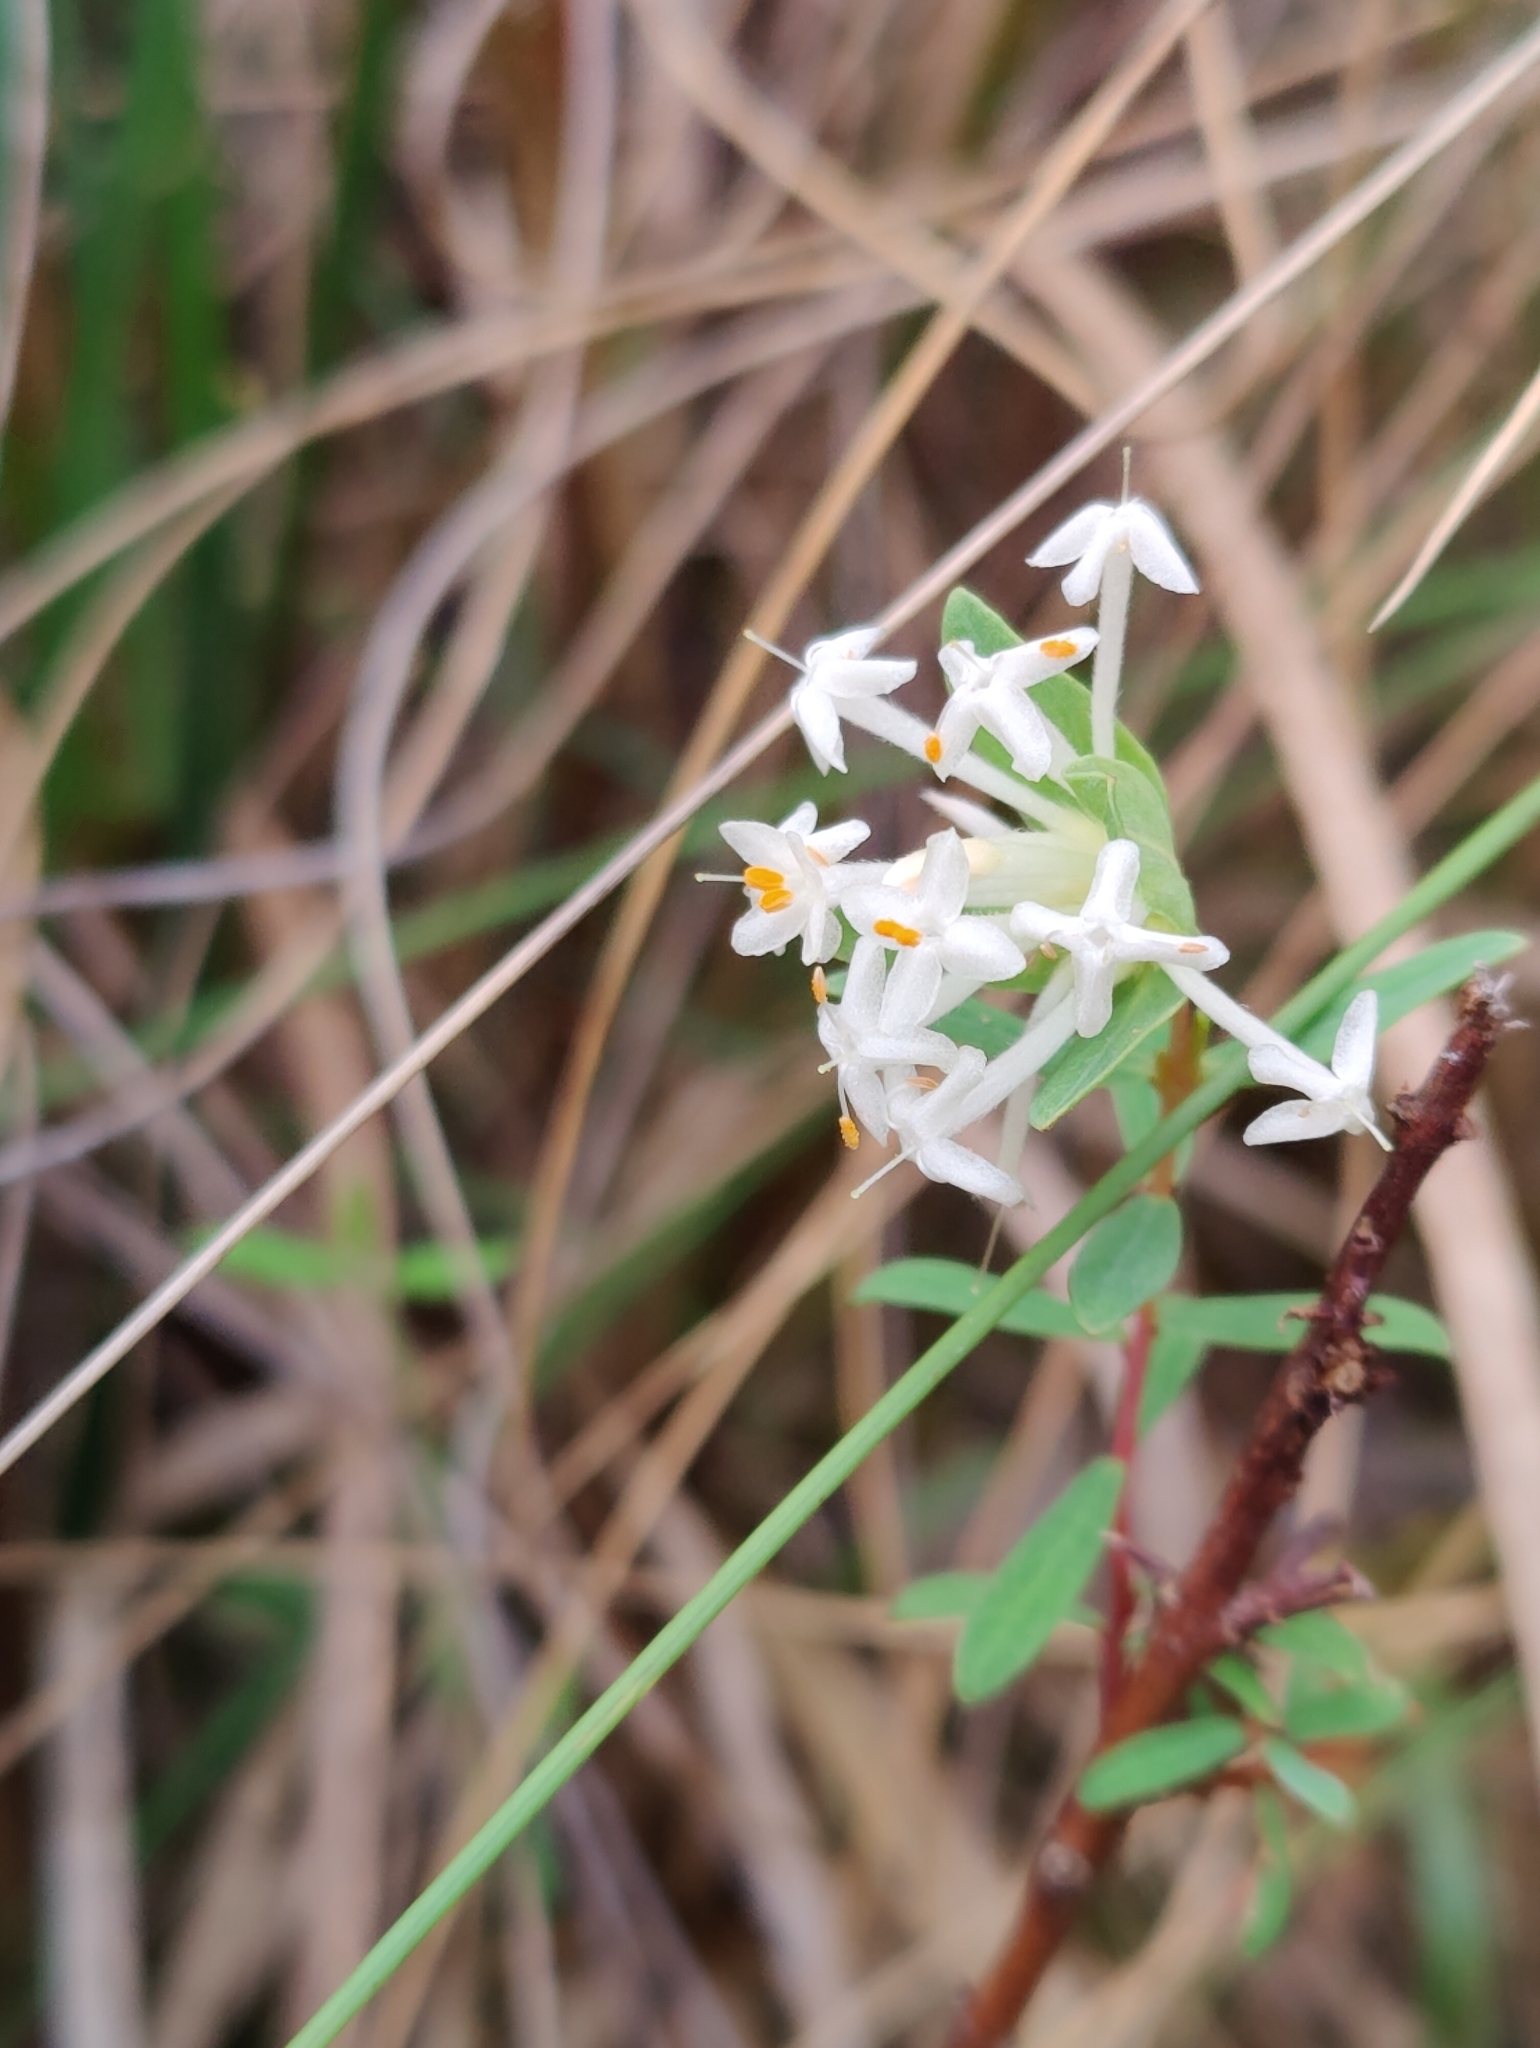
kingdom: Plantae
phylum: Tracheophyta
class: Magnoliopsida
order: Malvales
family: Thymelaeaceae
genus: Pimelea
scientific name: Pimelea linifolia
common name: Queen-of-the-bush
